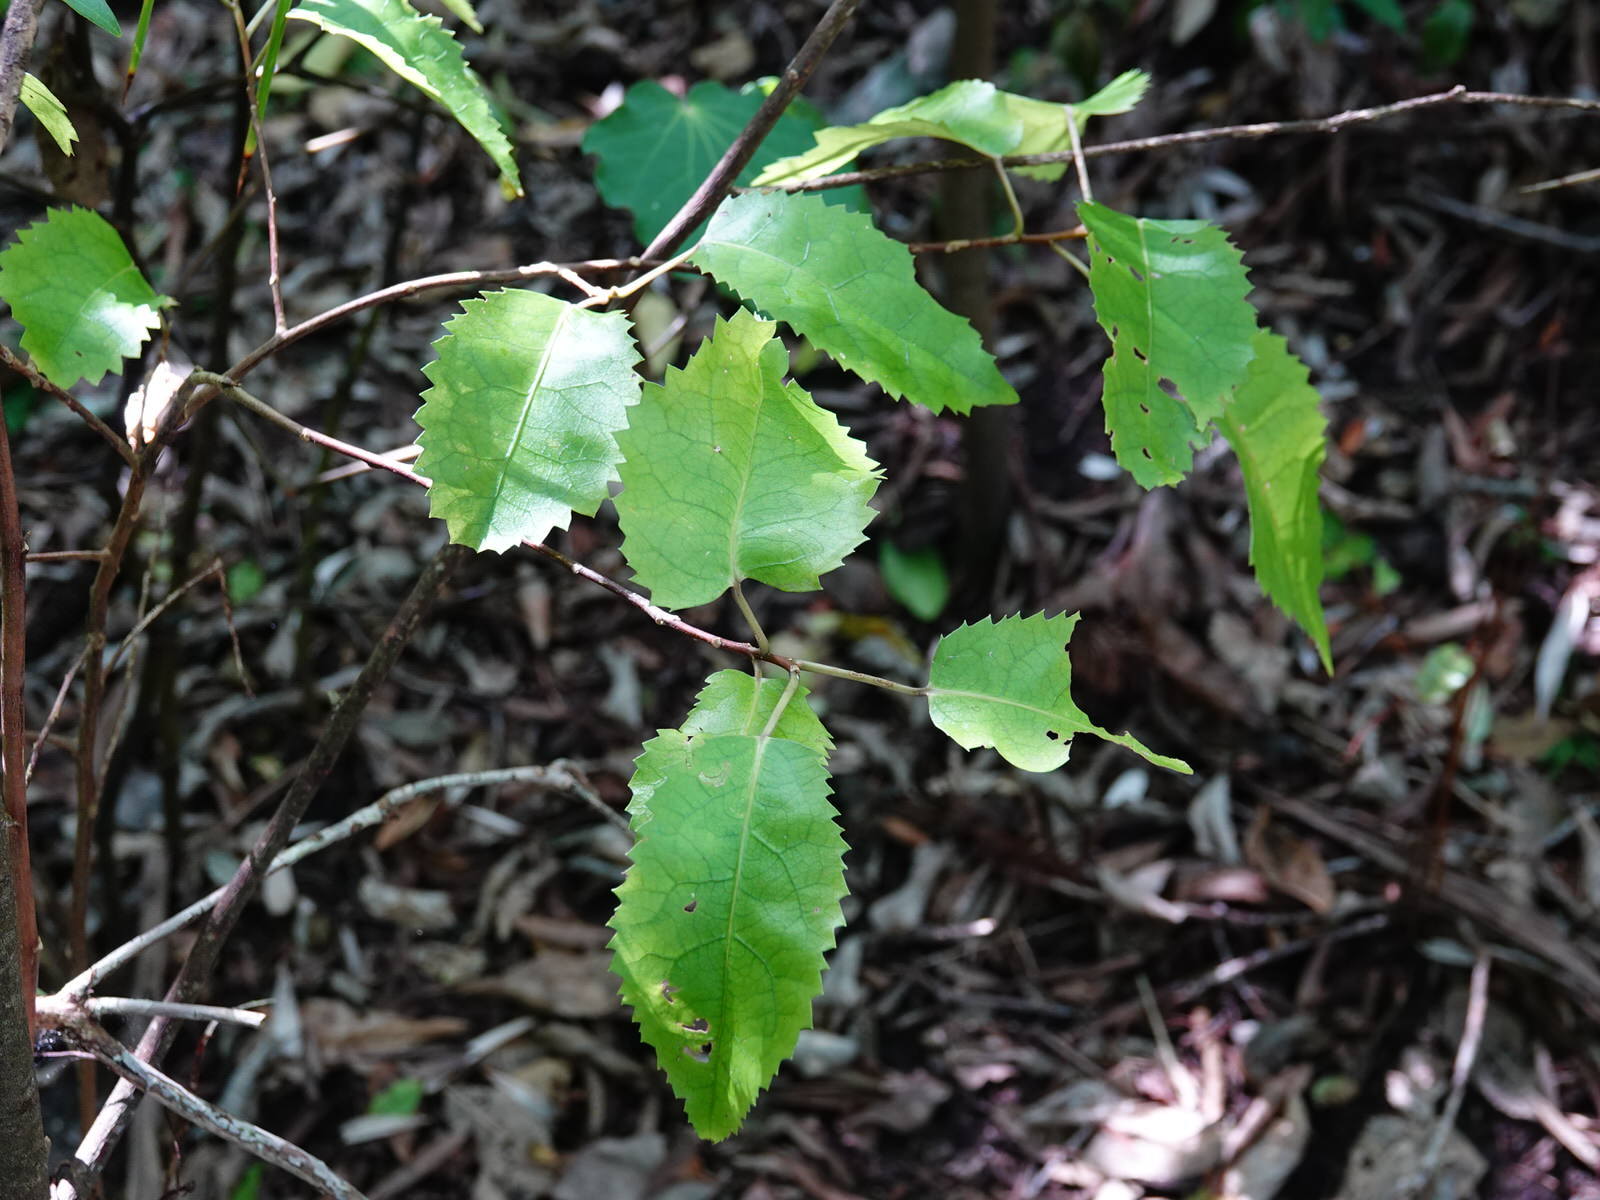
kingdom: Plantae
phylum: Tracheophyta
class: Magnoliopsida
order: Malvales
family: Malvaceae
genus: Hoheria
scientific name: Hoheria populnea
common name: Lacebark
